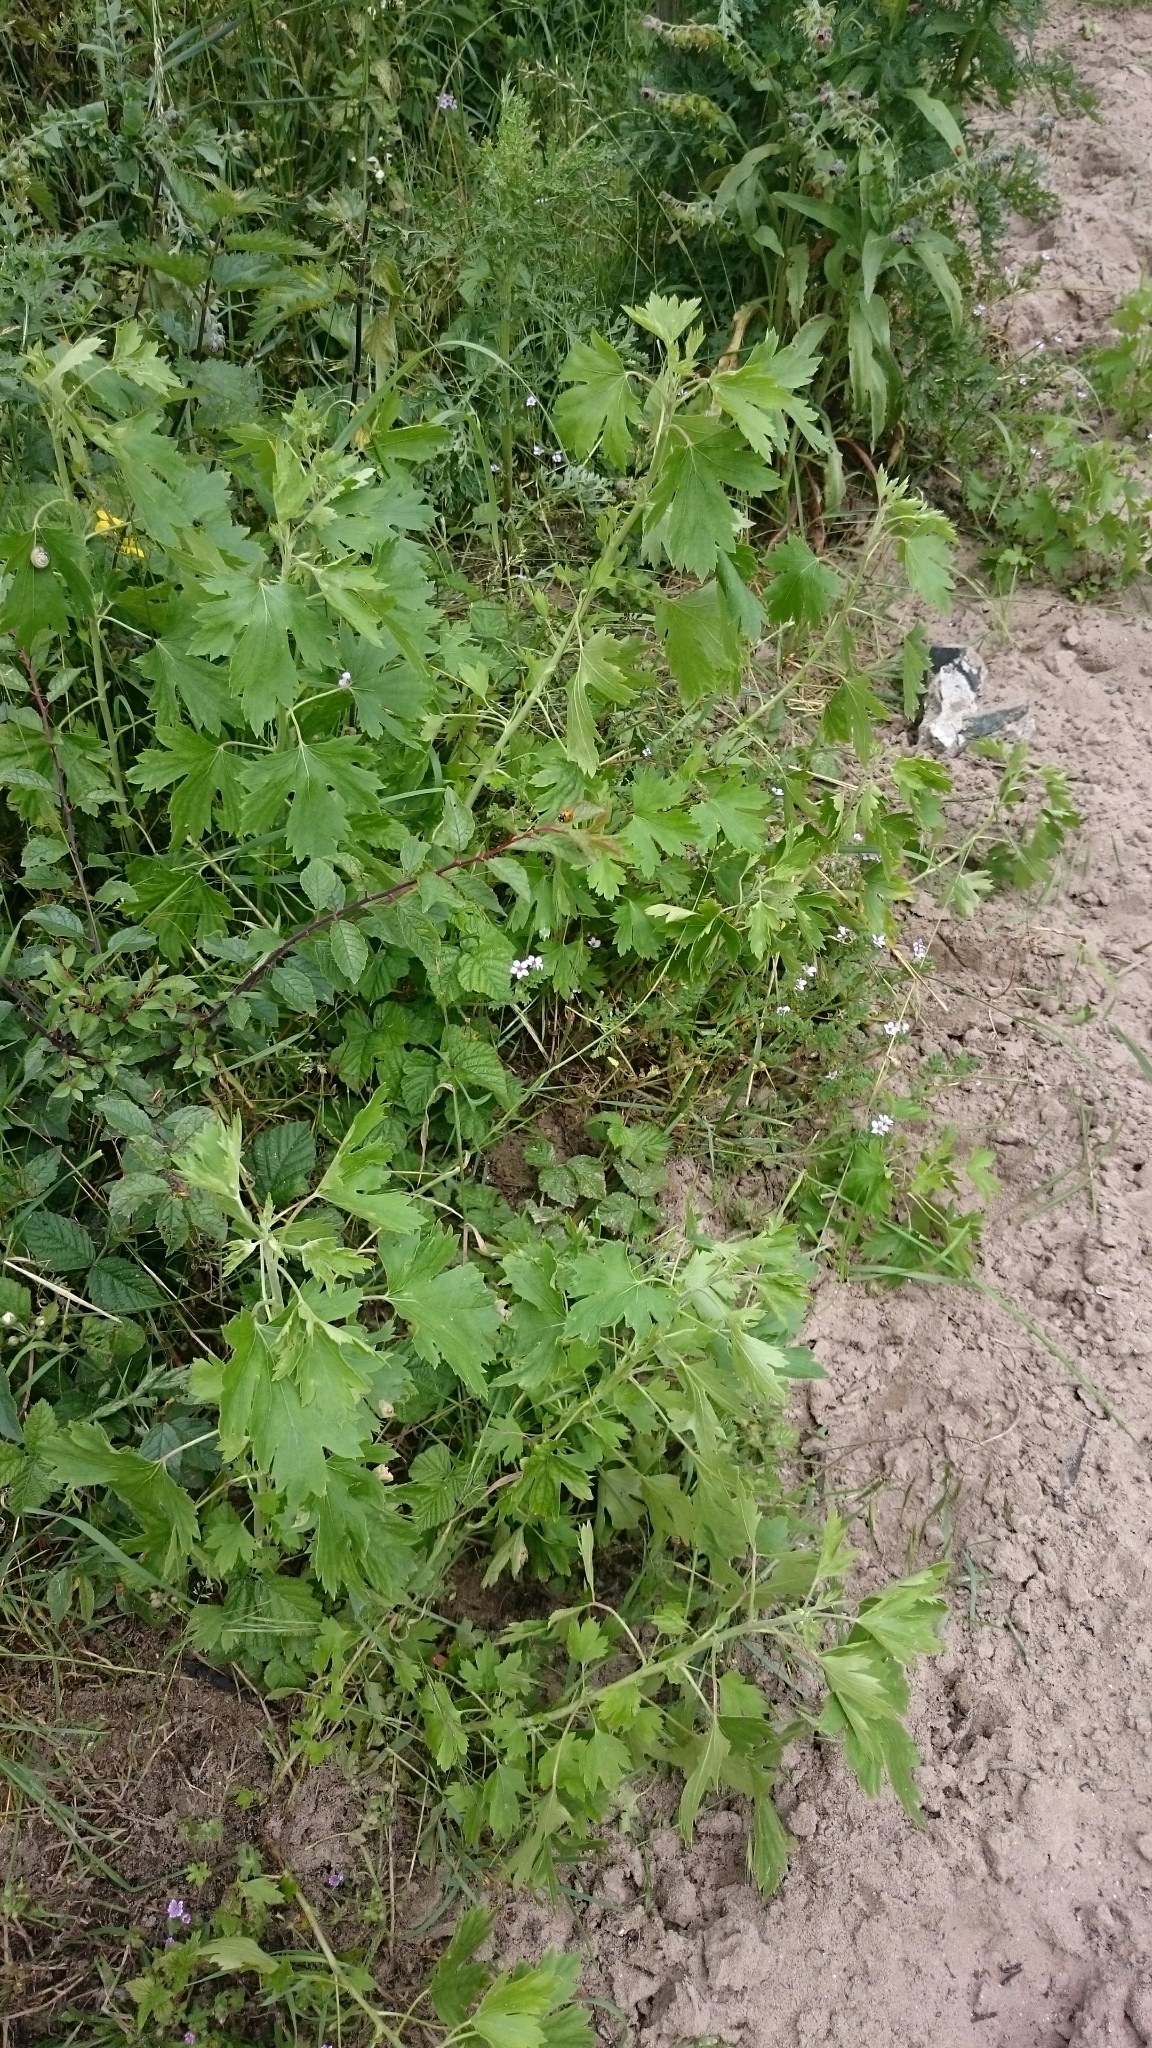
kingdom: Plantae
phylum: Tracheophyta
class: Magnoliopsida
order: Saxifragales
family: Grossulariaceae
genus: Ribes
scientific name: Ribes aureum
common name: Golden currant
